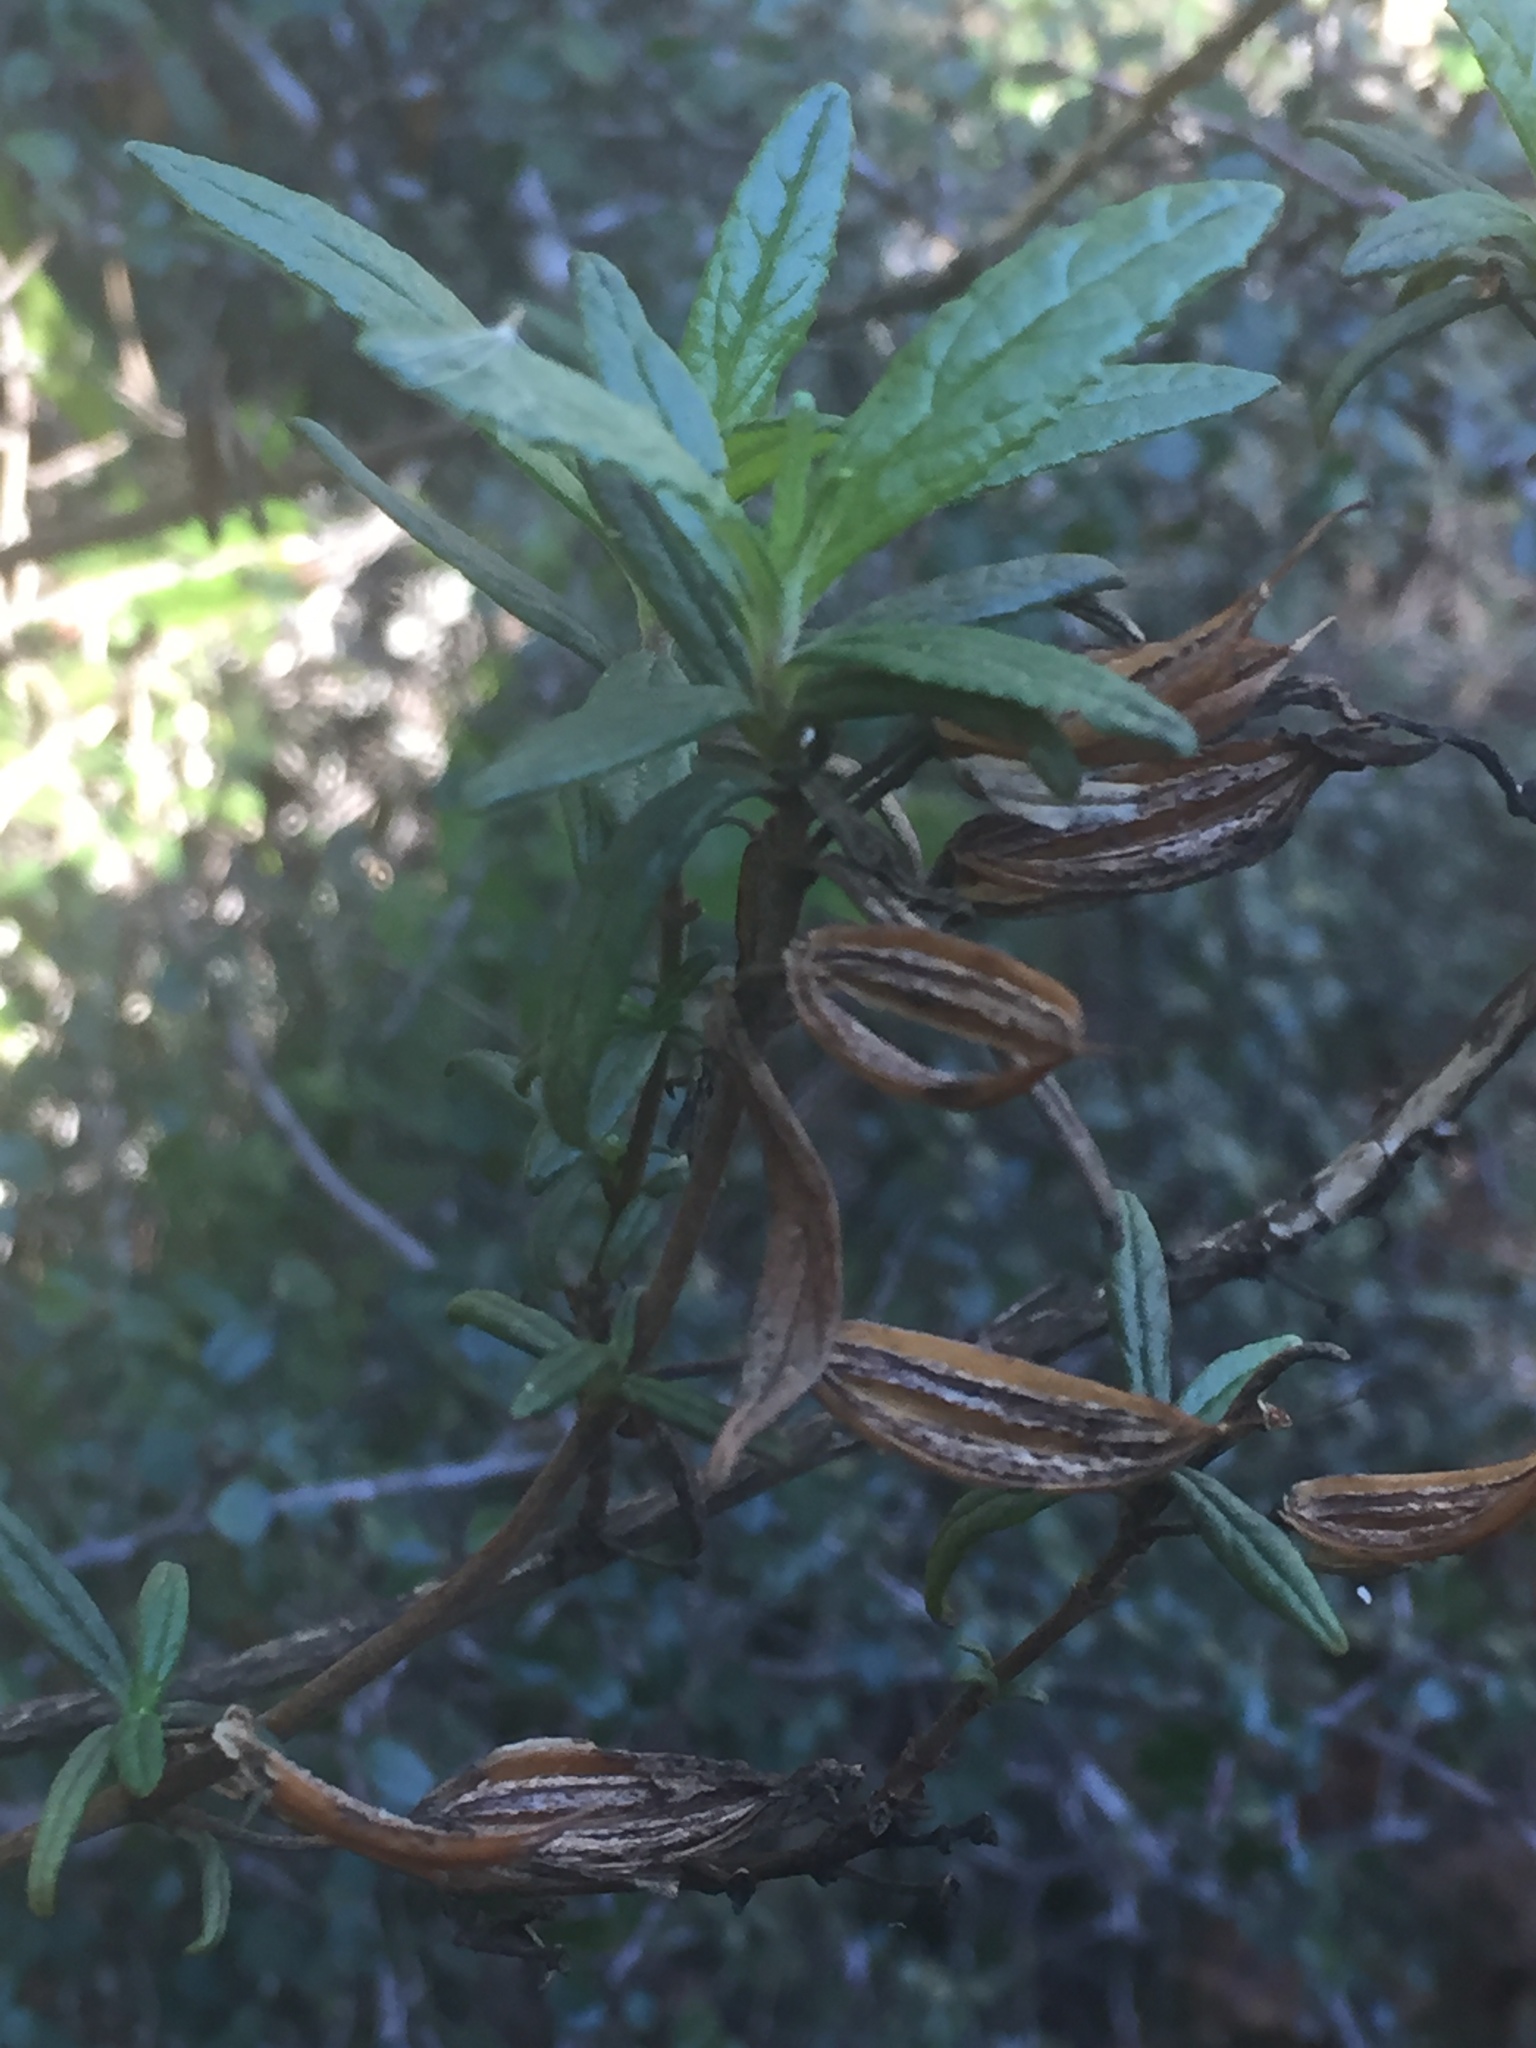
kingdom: Plantae
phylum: Tracheophyta
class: Magnoliopsida
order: Lamiales
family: Phrymaceae
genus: Diplacus
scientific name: Diplacus aurantiacus
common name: Bush monkey-flower
